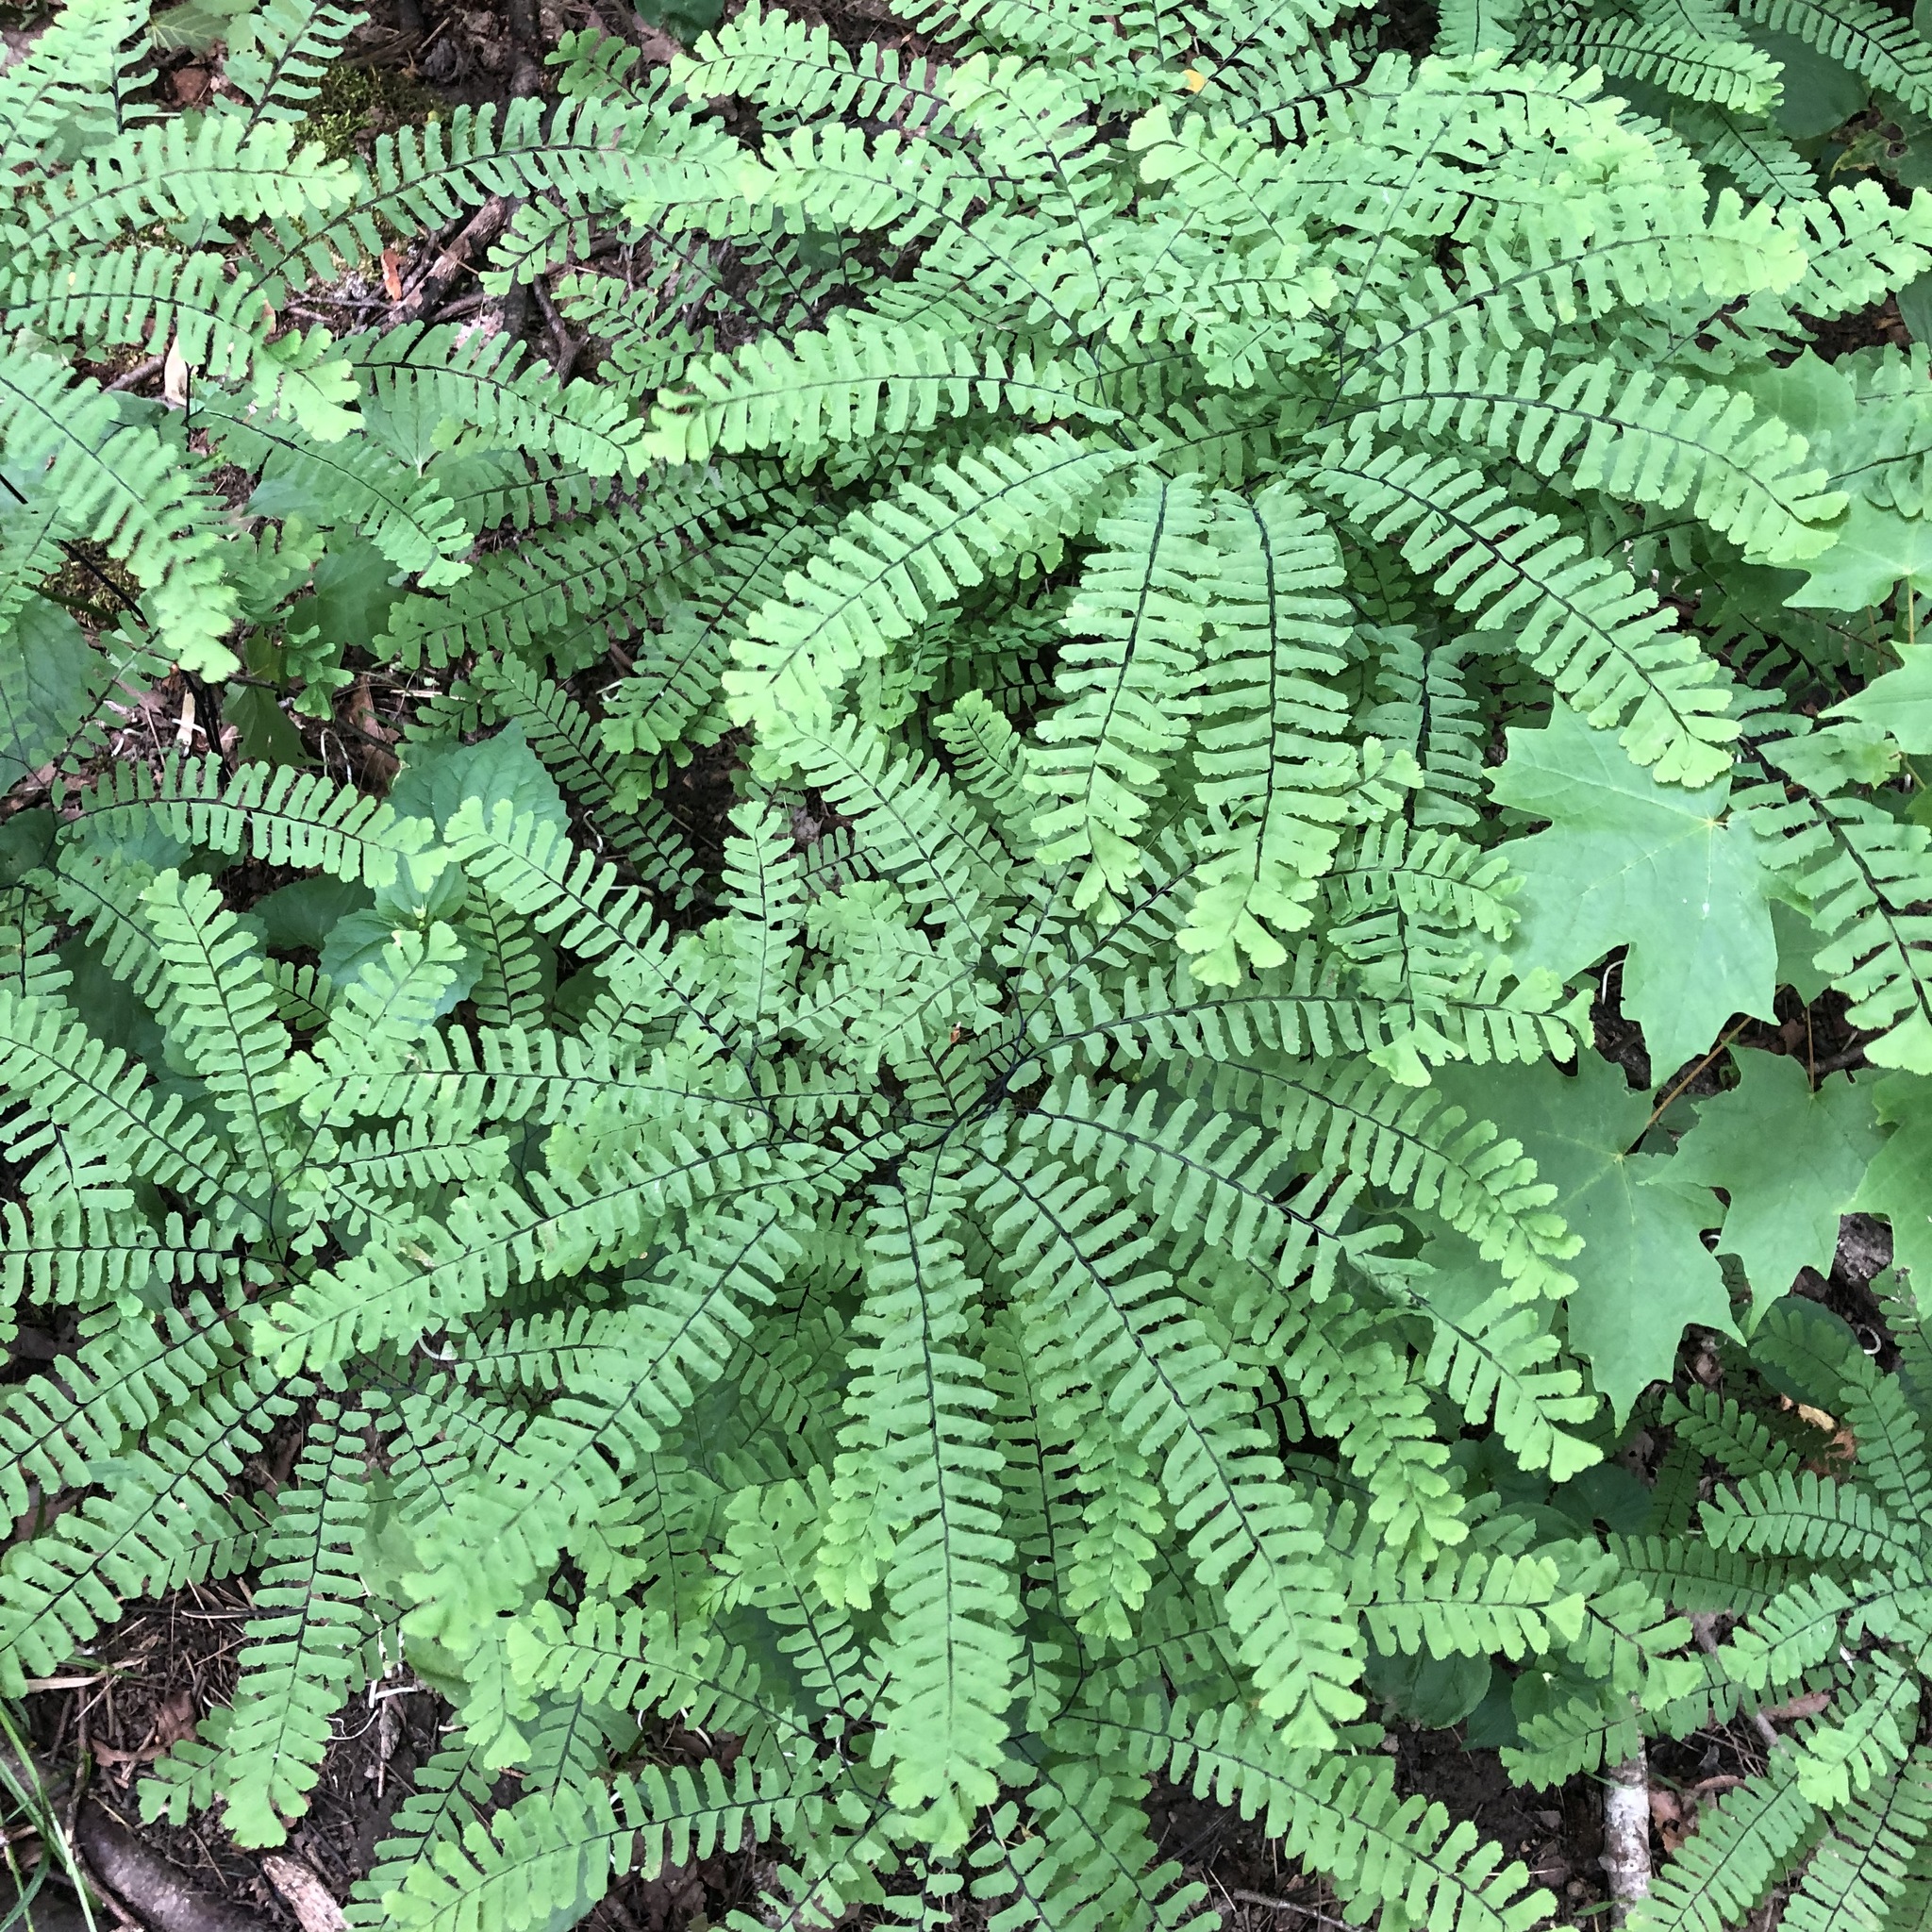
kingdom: Plantae
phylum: Tracheophyta
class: Polypodiopsida
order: Polypodiales
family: Pteridaceae
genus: Adiantum
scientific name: Adiantum pedatum
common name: Five-finger fern
